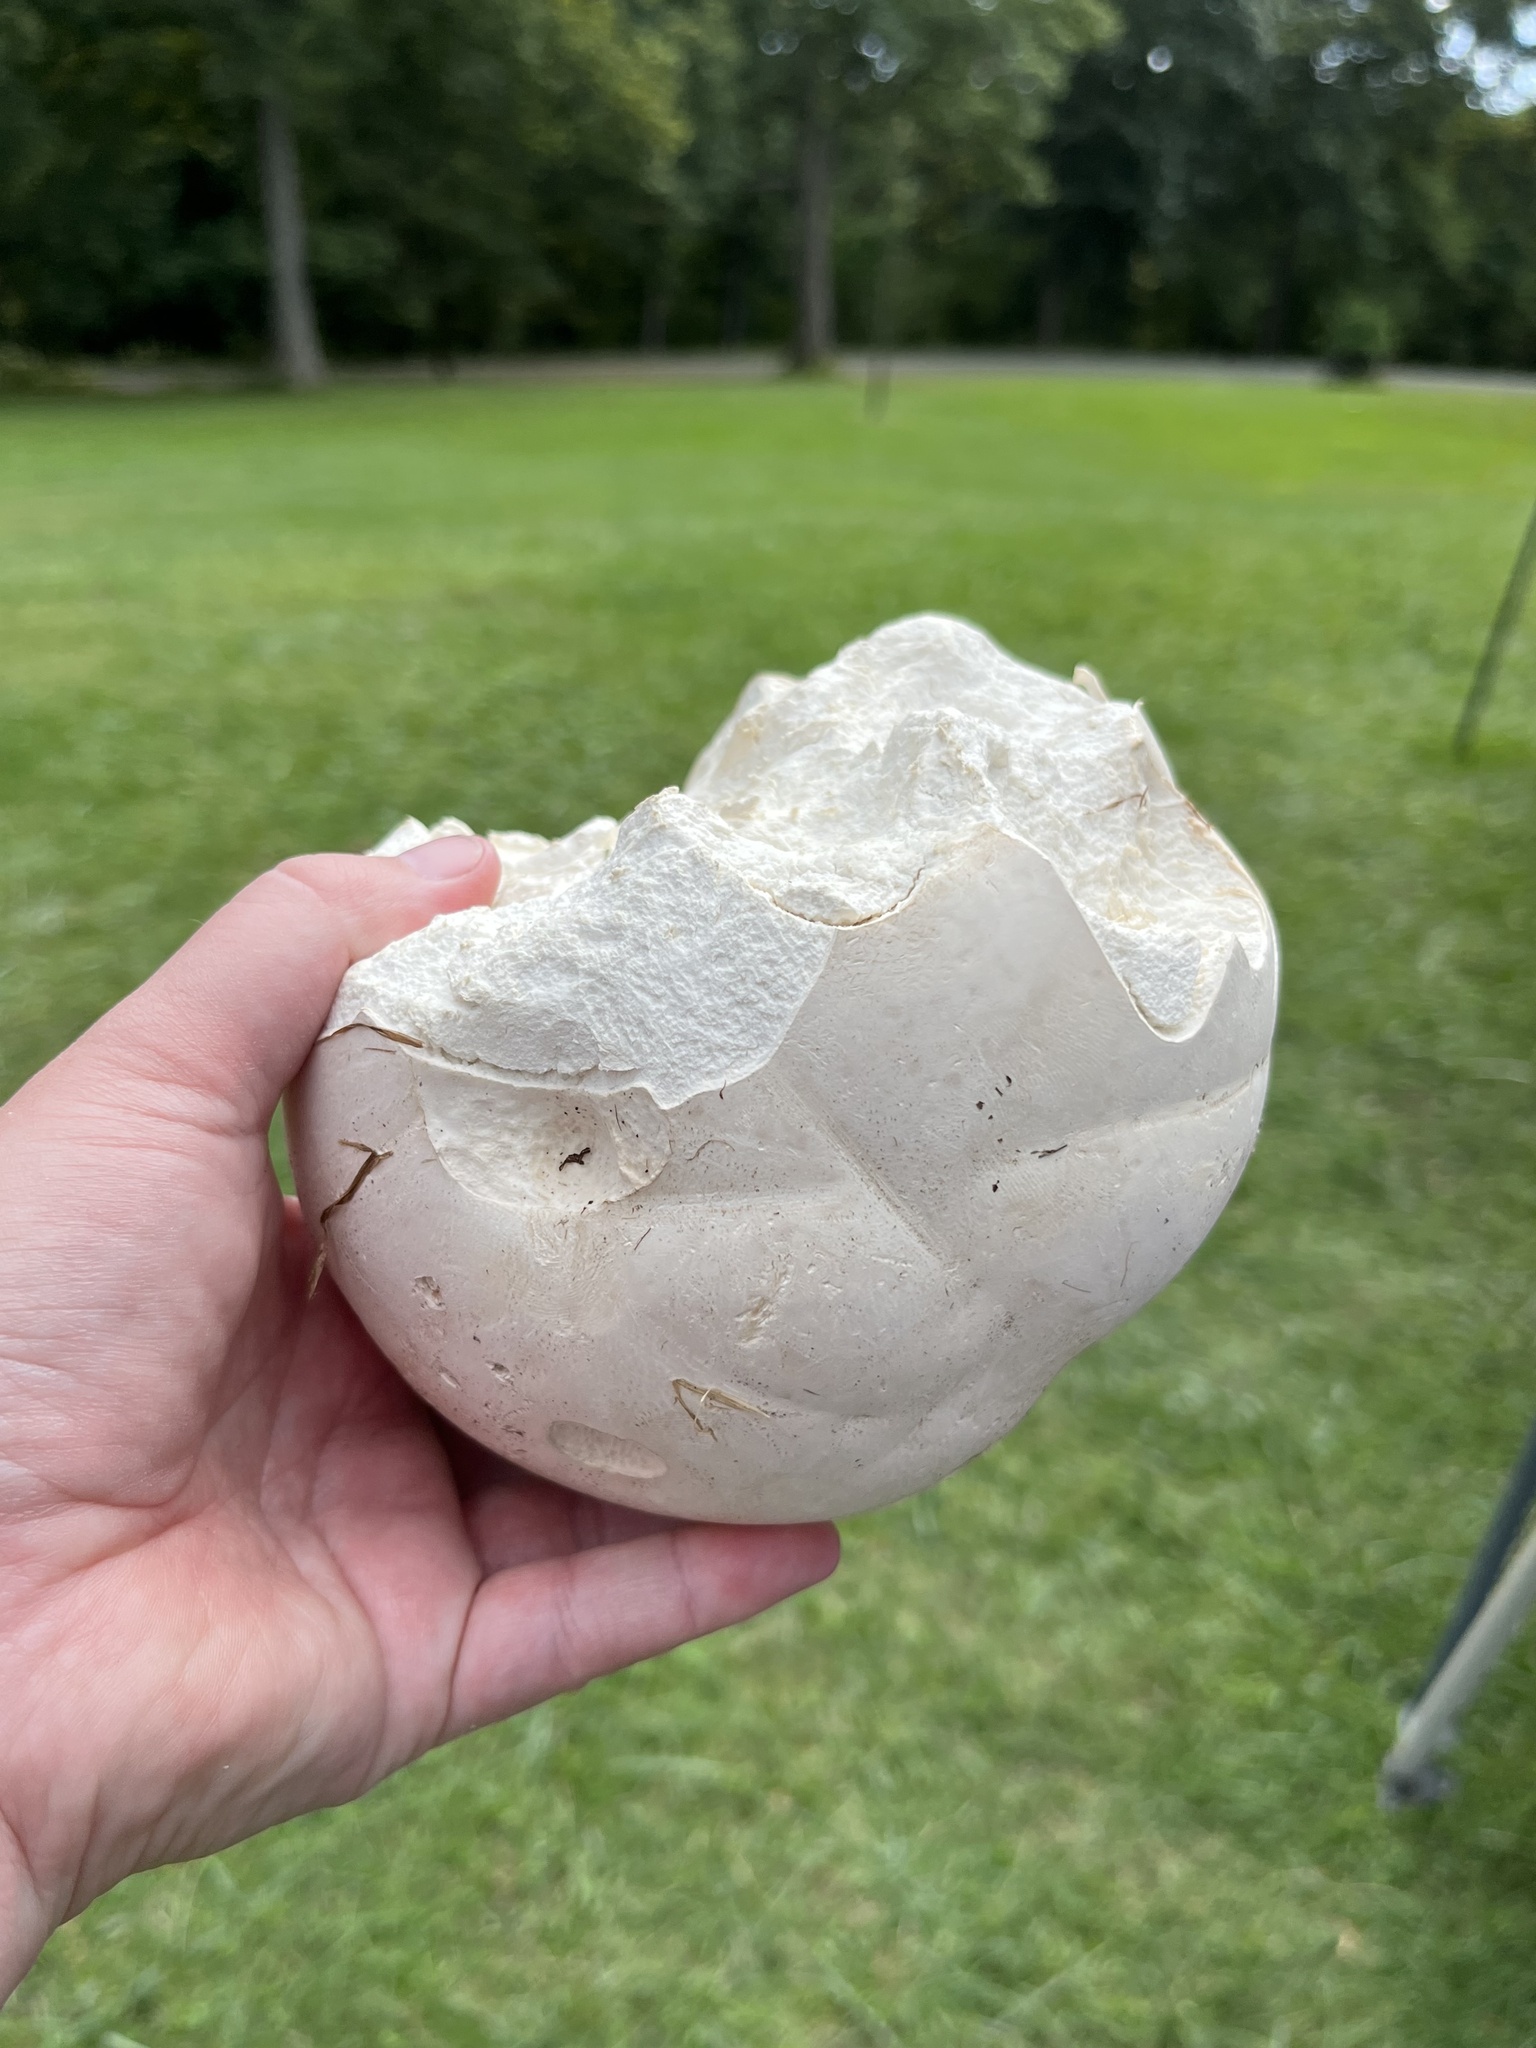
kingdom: Fungi
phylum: Basidiomycota
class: Agaricomycetes
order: Agaricales
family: Lycoperdaceae
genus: Calvatia
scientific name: Calvatia gigantea
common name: Giant puffball
